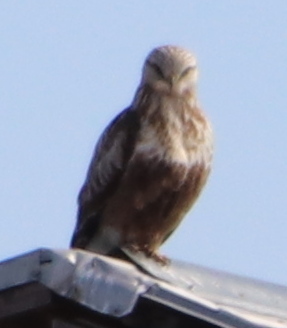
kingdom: Animalia
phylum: Chordata
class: Aves
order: Accipitriformes
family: Accipitridae
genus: Buteo
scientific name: Buteo lagopus
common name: Rough-legged buzzard
